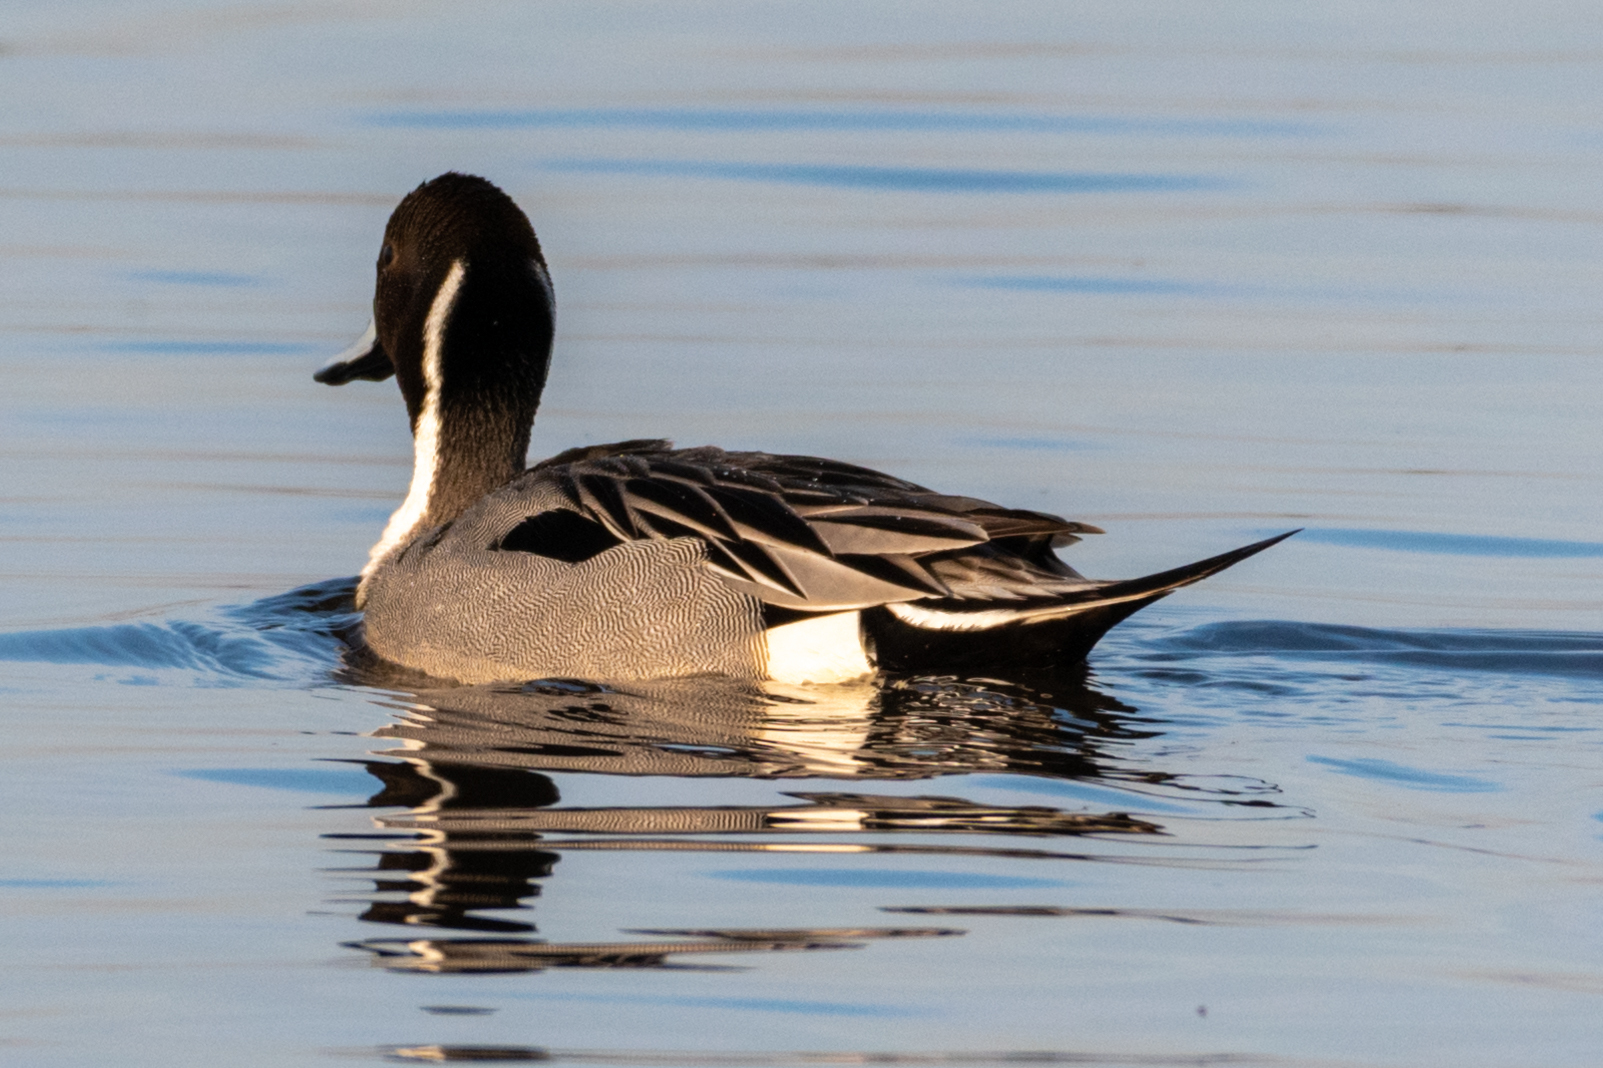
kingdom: Animalia
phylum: Chordata
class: Aves
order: Anseriformes
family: Anatidae
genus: Anas
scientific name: Anas acuta
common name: Northern pintail
